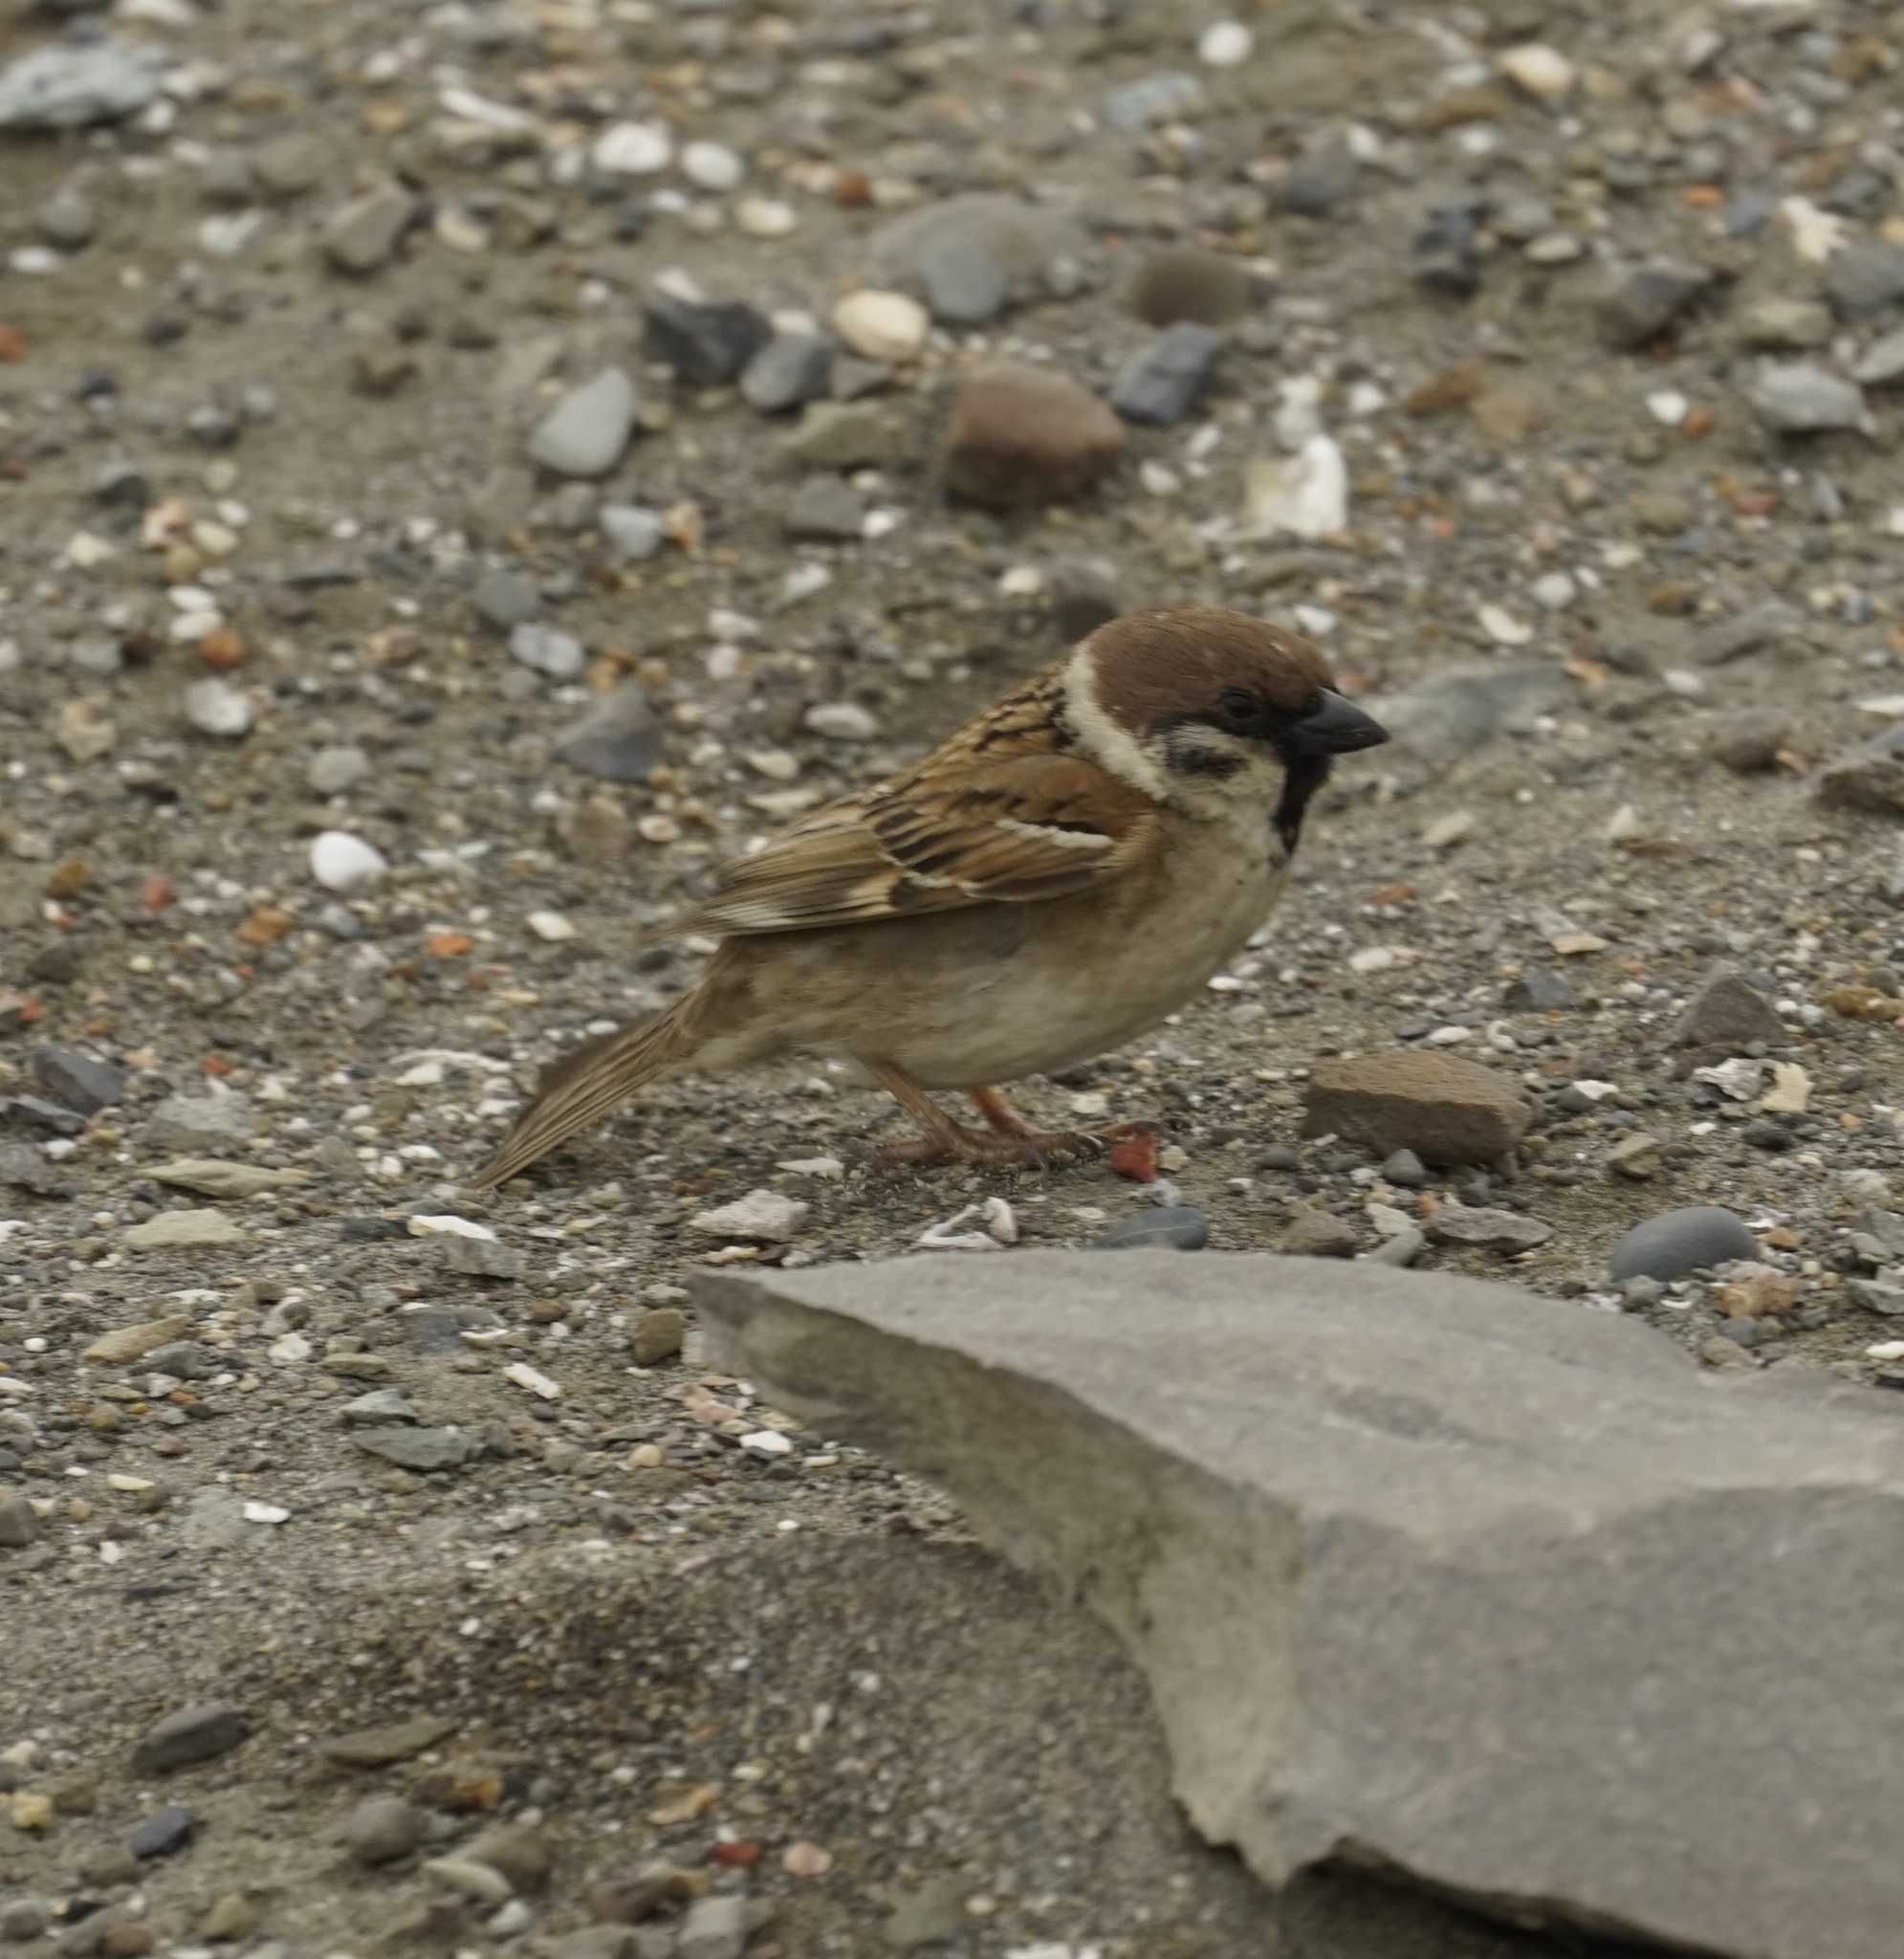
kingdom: Animalia
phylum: Chordata
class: Aves
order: Passeriformes
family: Passeridae
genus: Passer
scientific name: Passer montanus
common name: Eurasian tree sparrow
